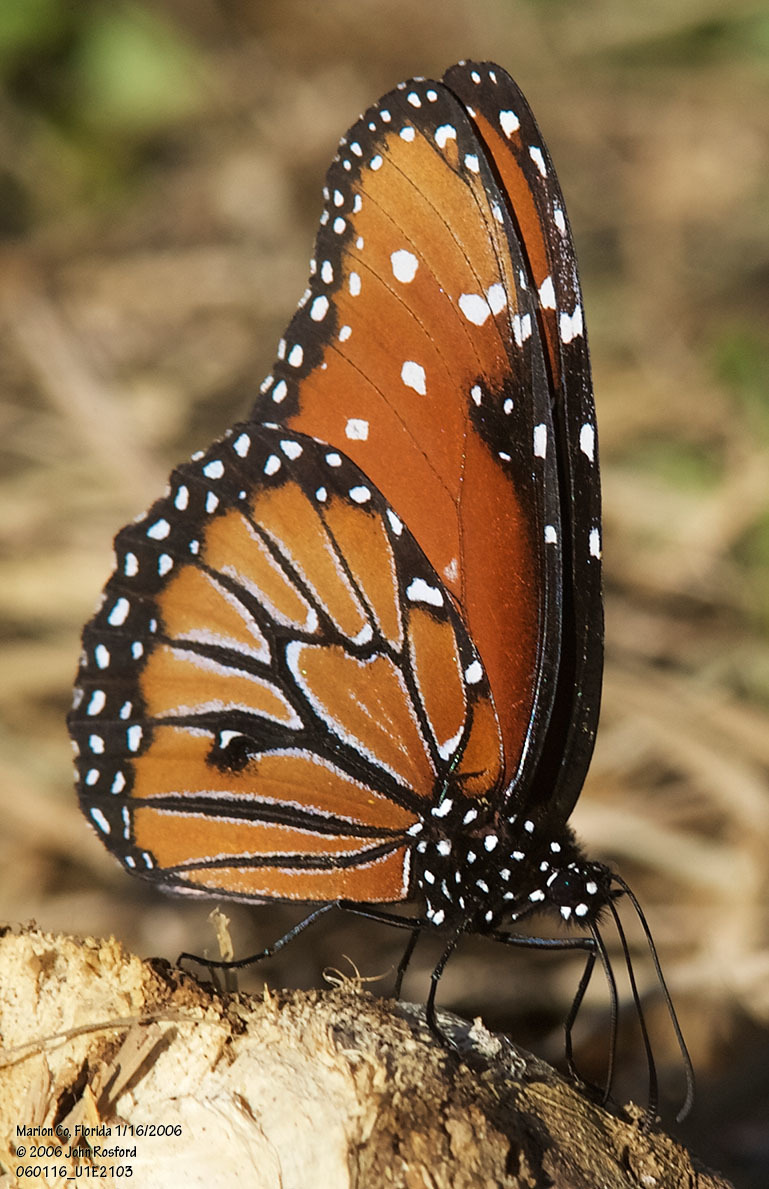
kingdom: Animalia
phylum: Arthropoda
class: Insecta
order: Lepidoptera
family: Nymphalidae
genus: Danaus
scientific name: Danaus gilippus
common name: Queen
